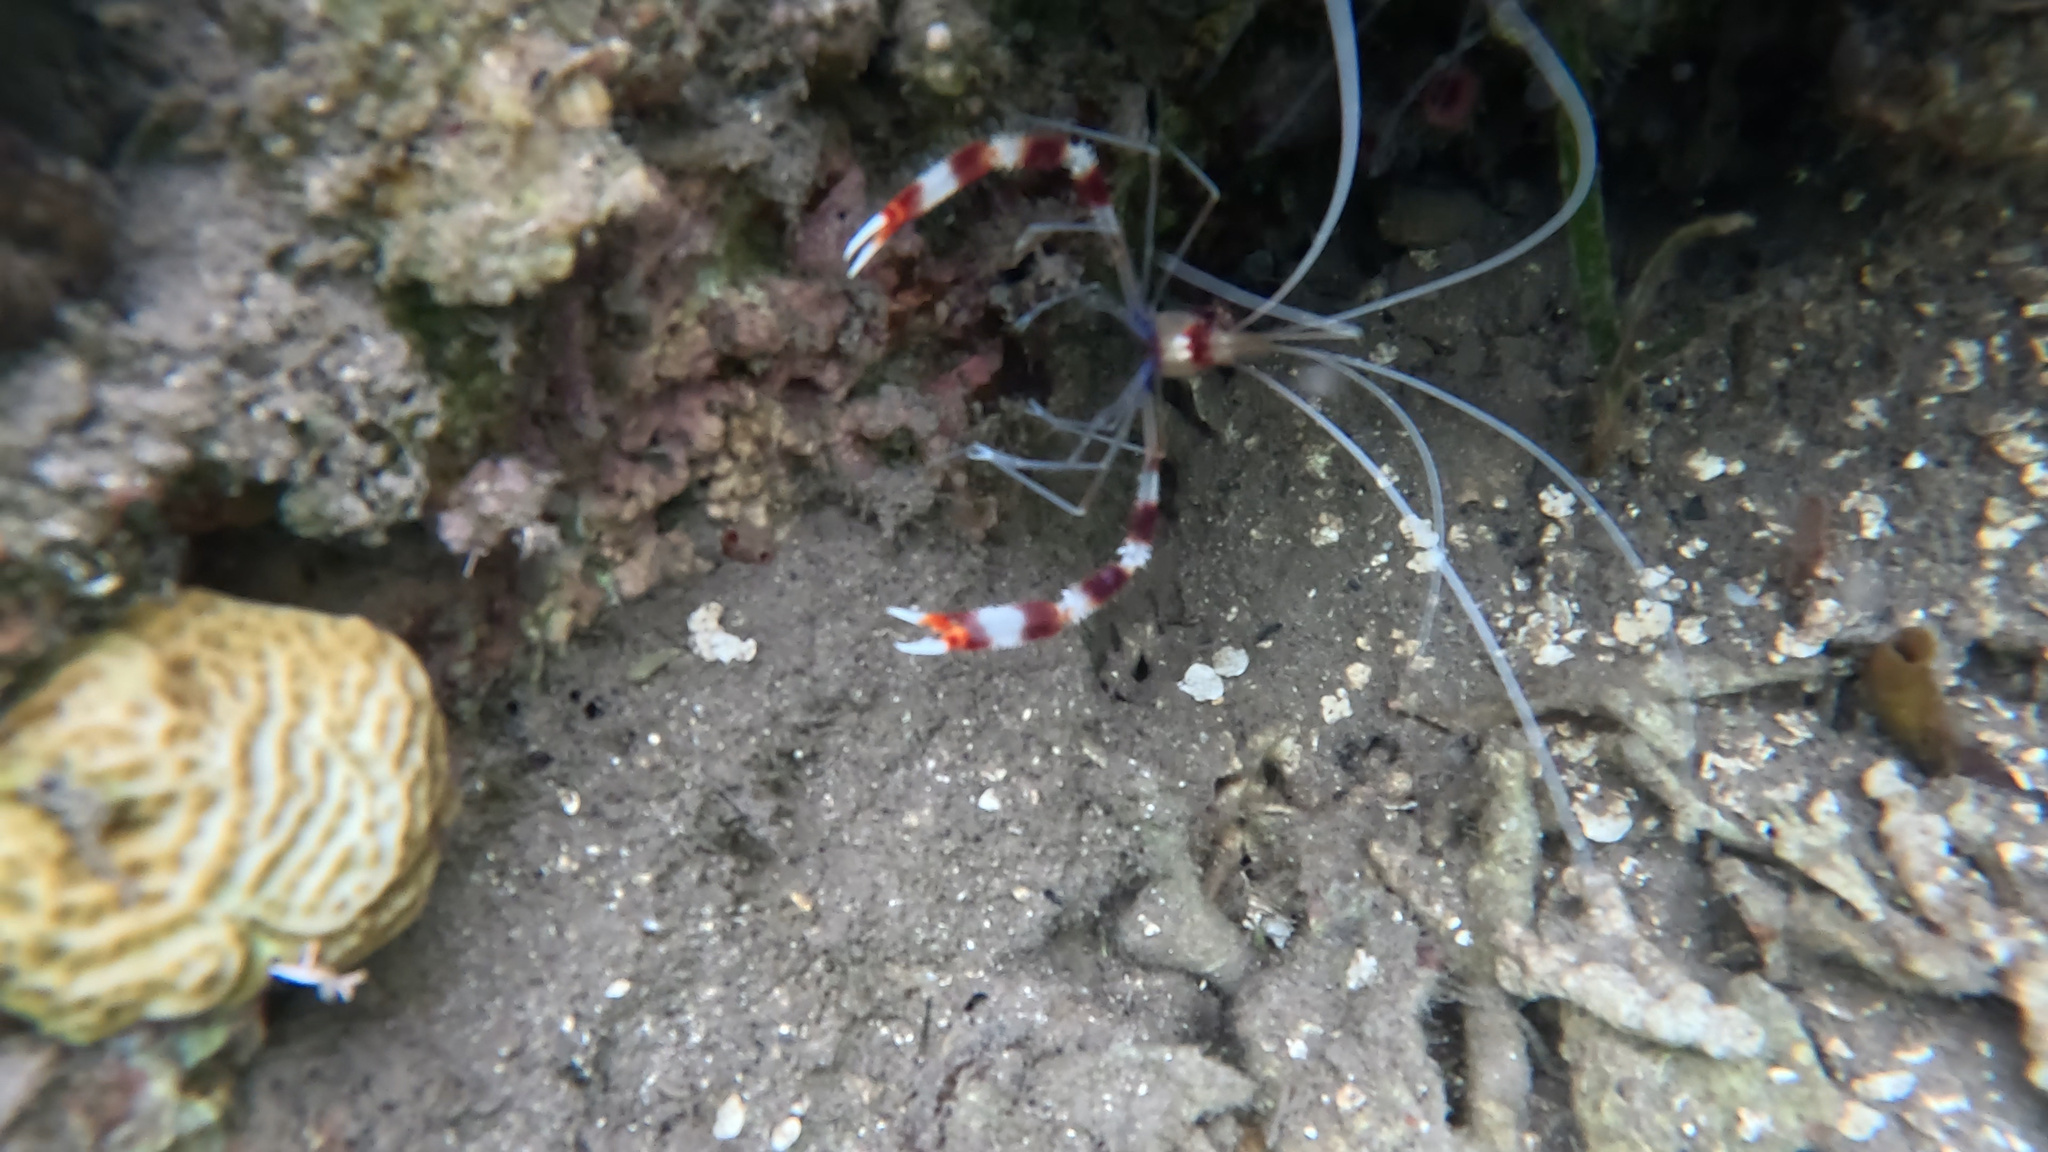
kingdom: Animalia
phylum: Arthropoda
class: Malacostraca
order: Decapoda
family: Stenopodidae
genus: Stenopus
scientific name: Stenopus hispidus
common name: Banded coral shrimp
